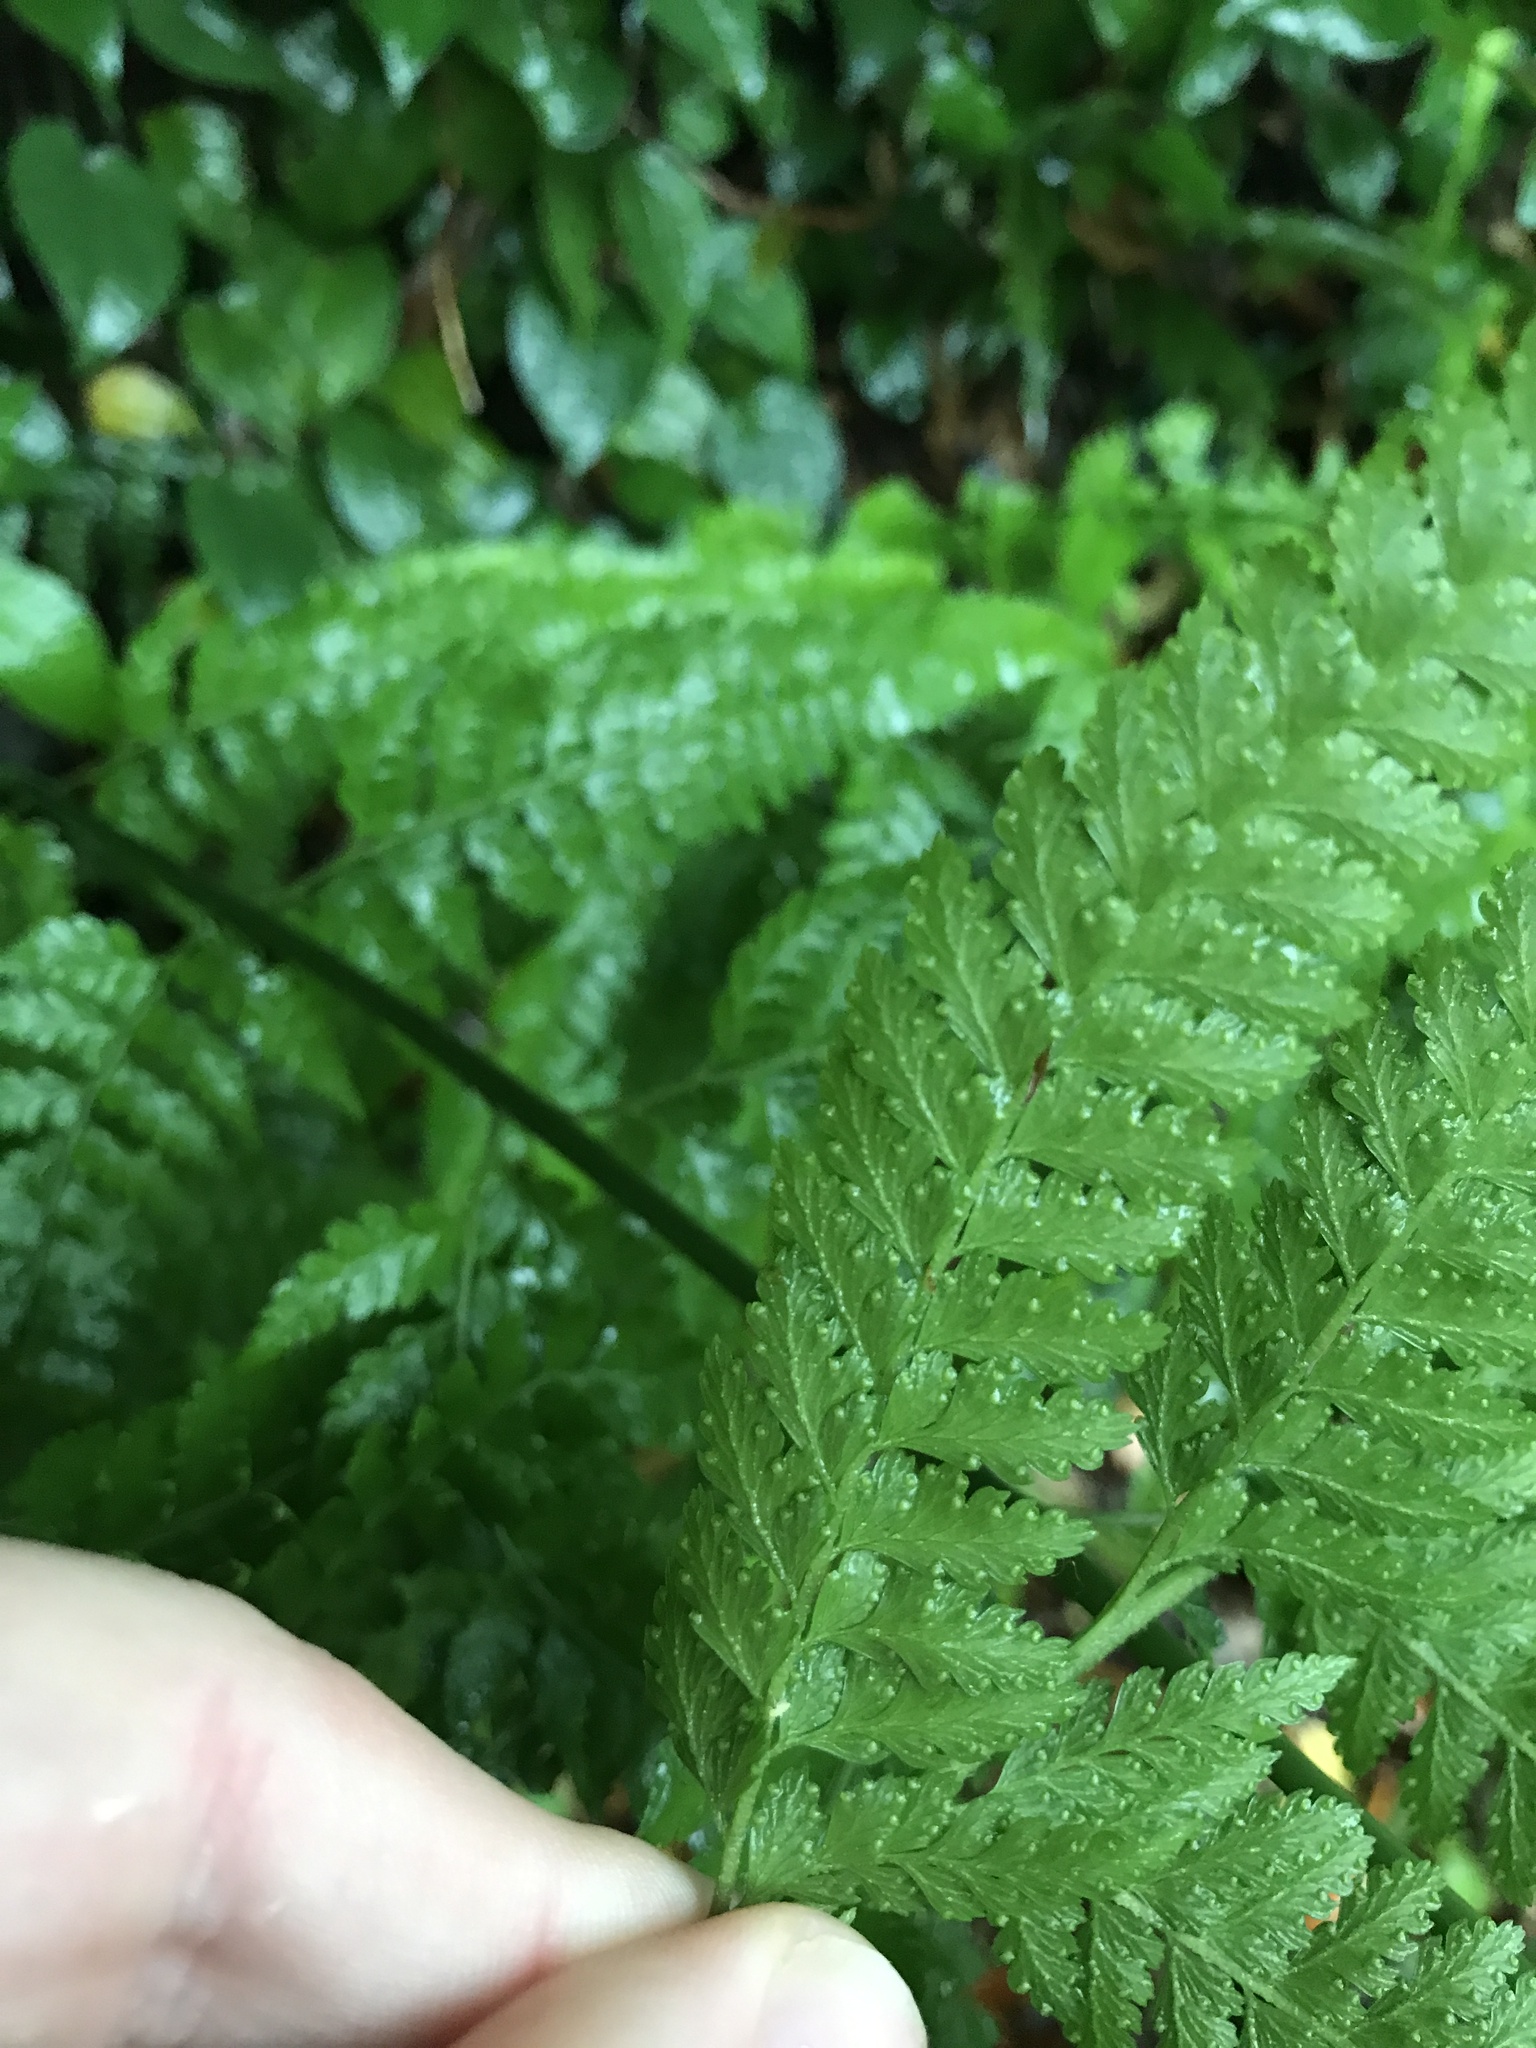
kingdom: Plantae
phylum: Tracheophyta
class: Polypodiopsida
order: Polypodiales
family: Dennstaedtiaceae
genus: Microlepia
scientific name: Microlepia strigosa
